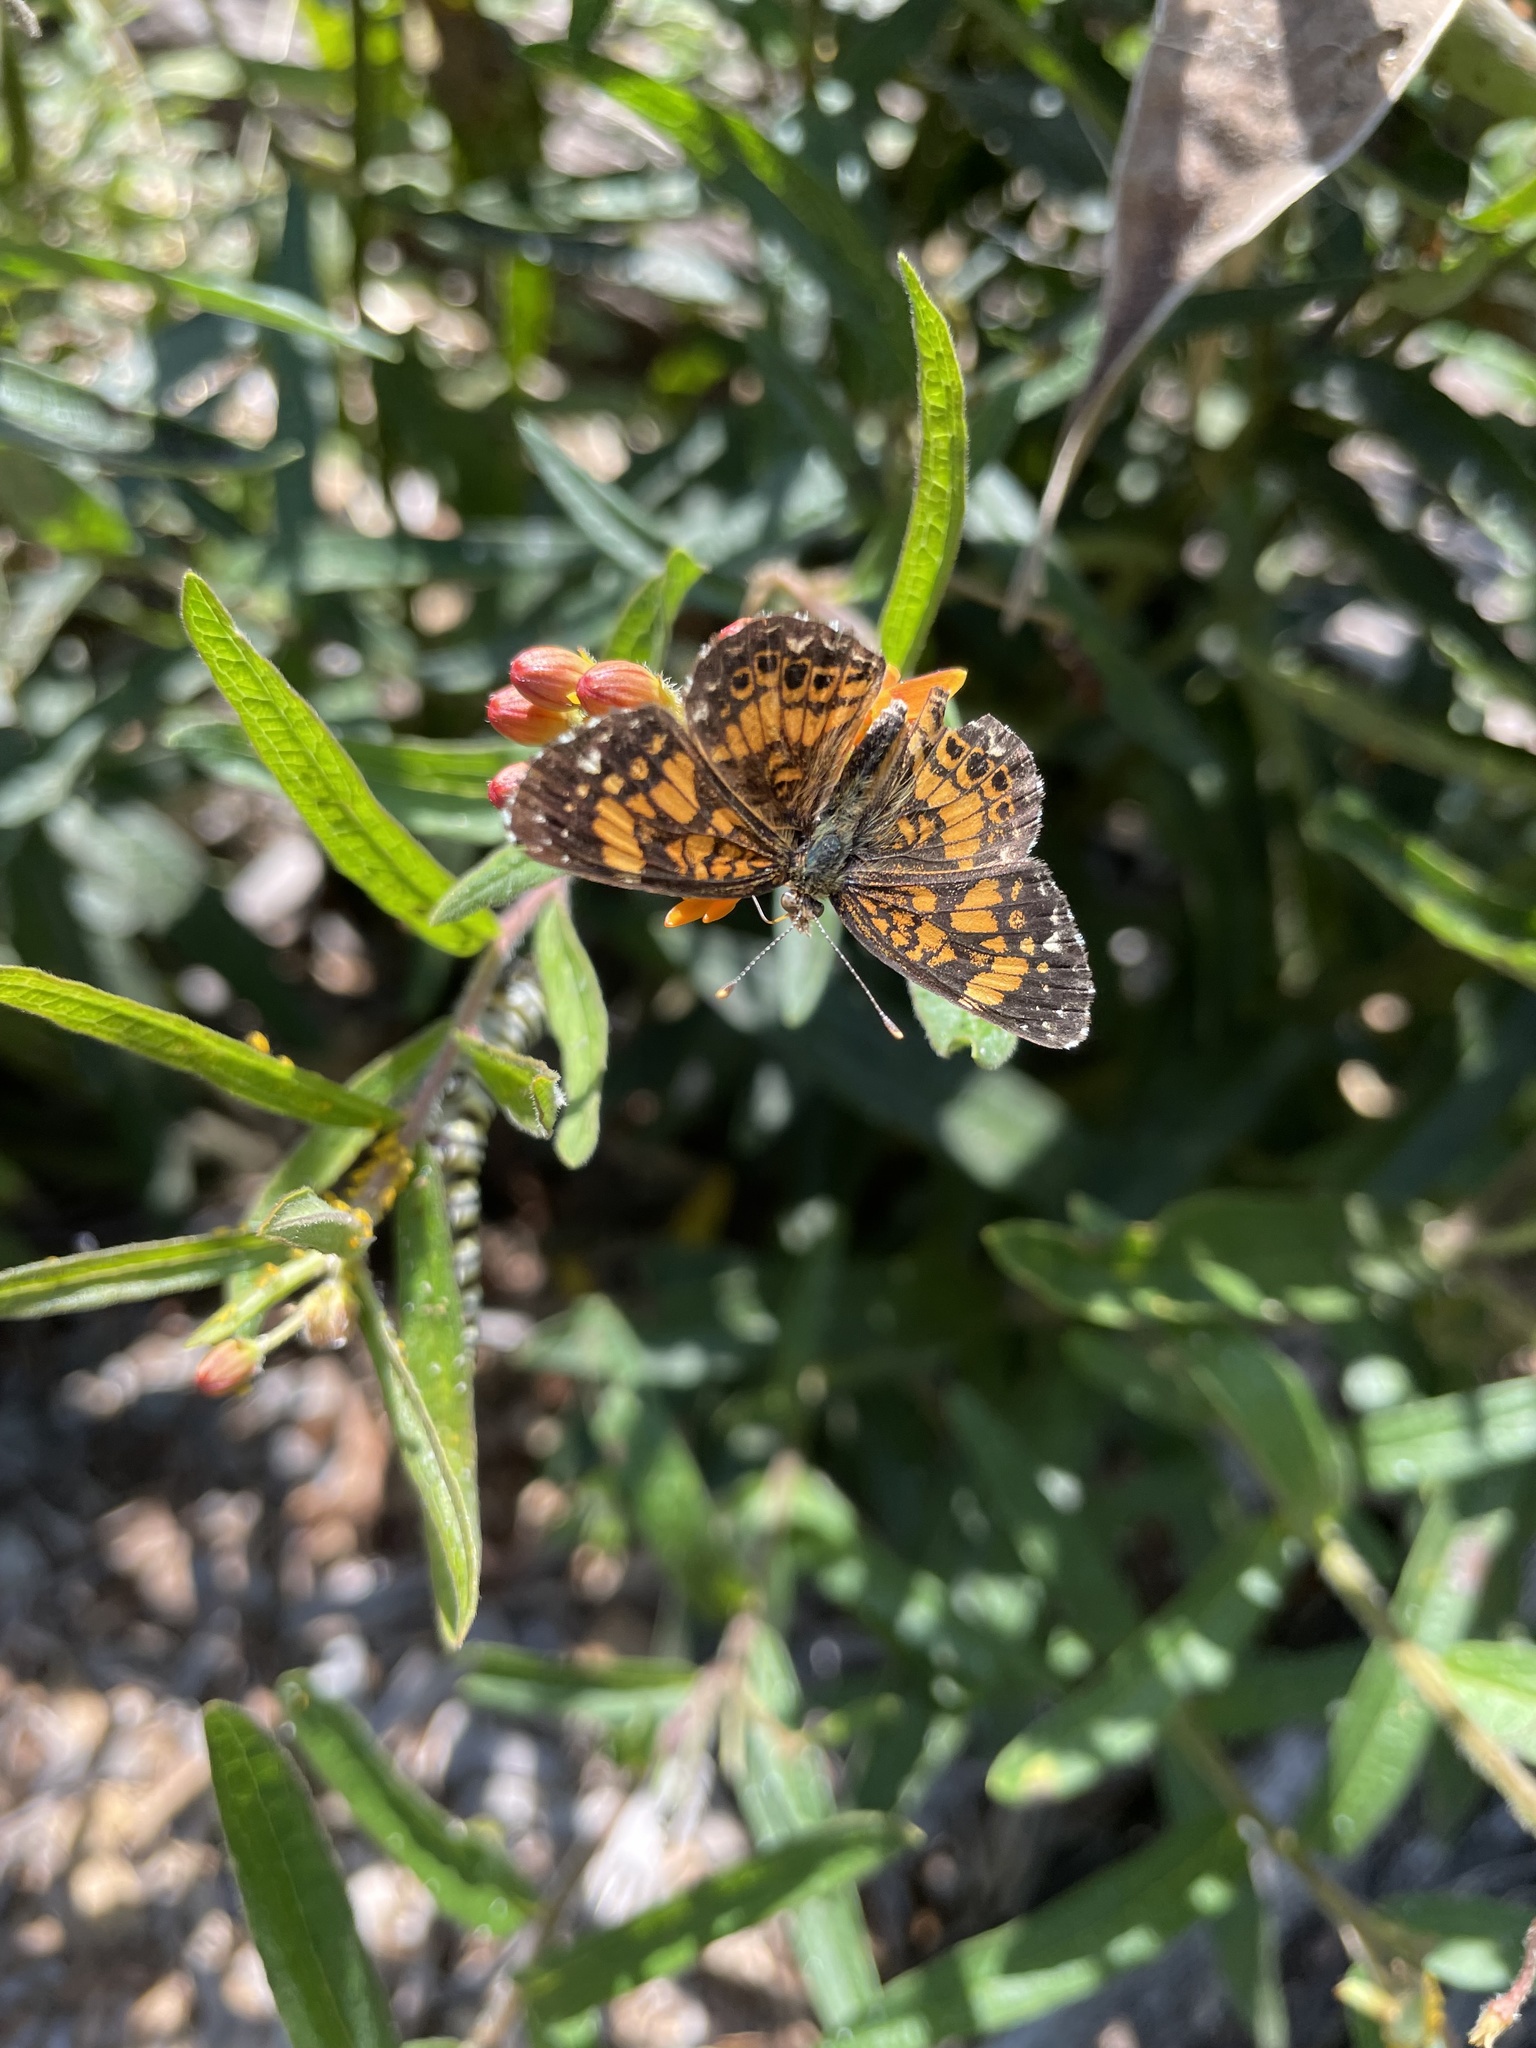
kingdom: Animalia
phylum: Arthropoda
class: Insecta
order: Lepidoptera
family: Nymphalidae
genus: Chlosyne
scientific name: Chlosyne gorgone
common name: Gorgone checkerspot
